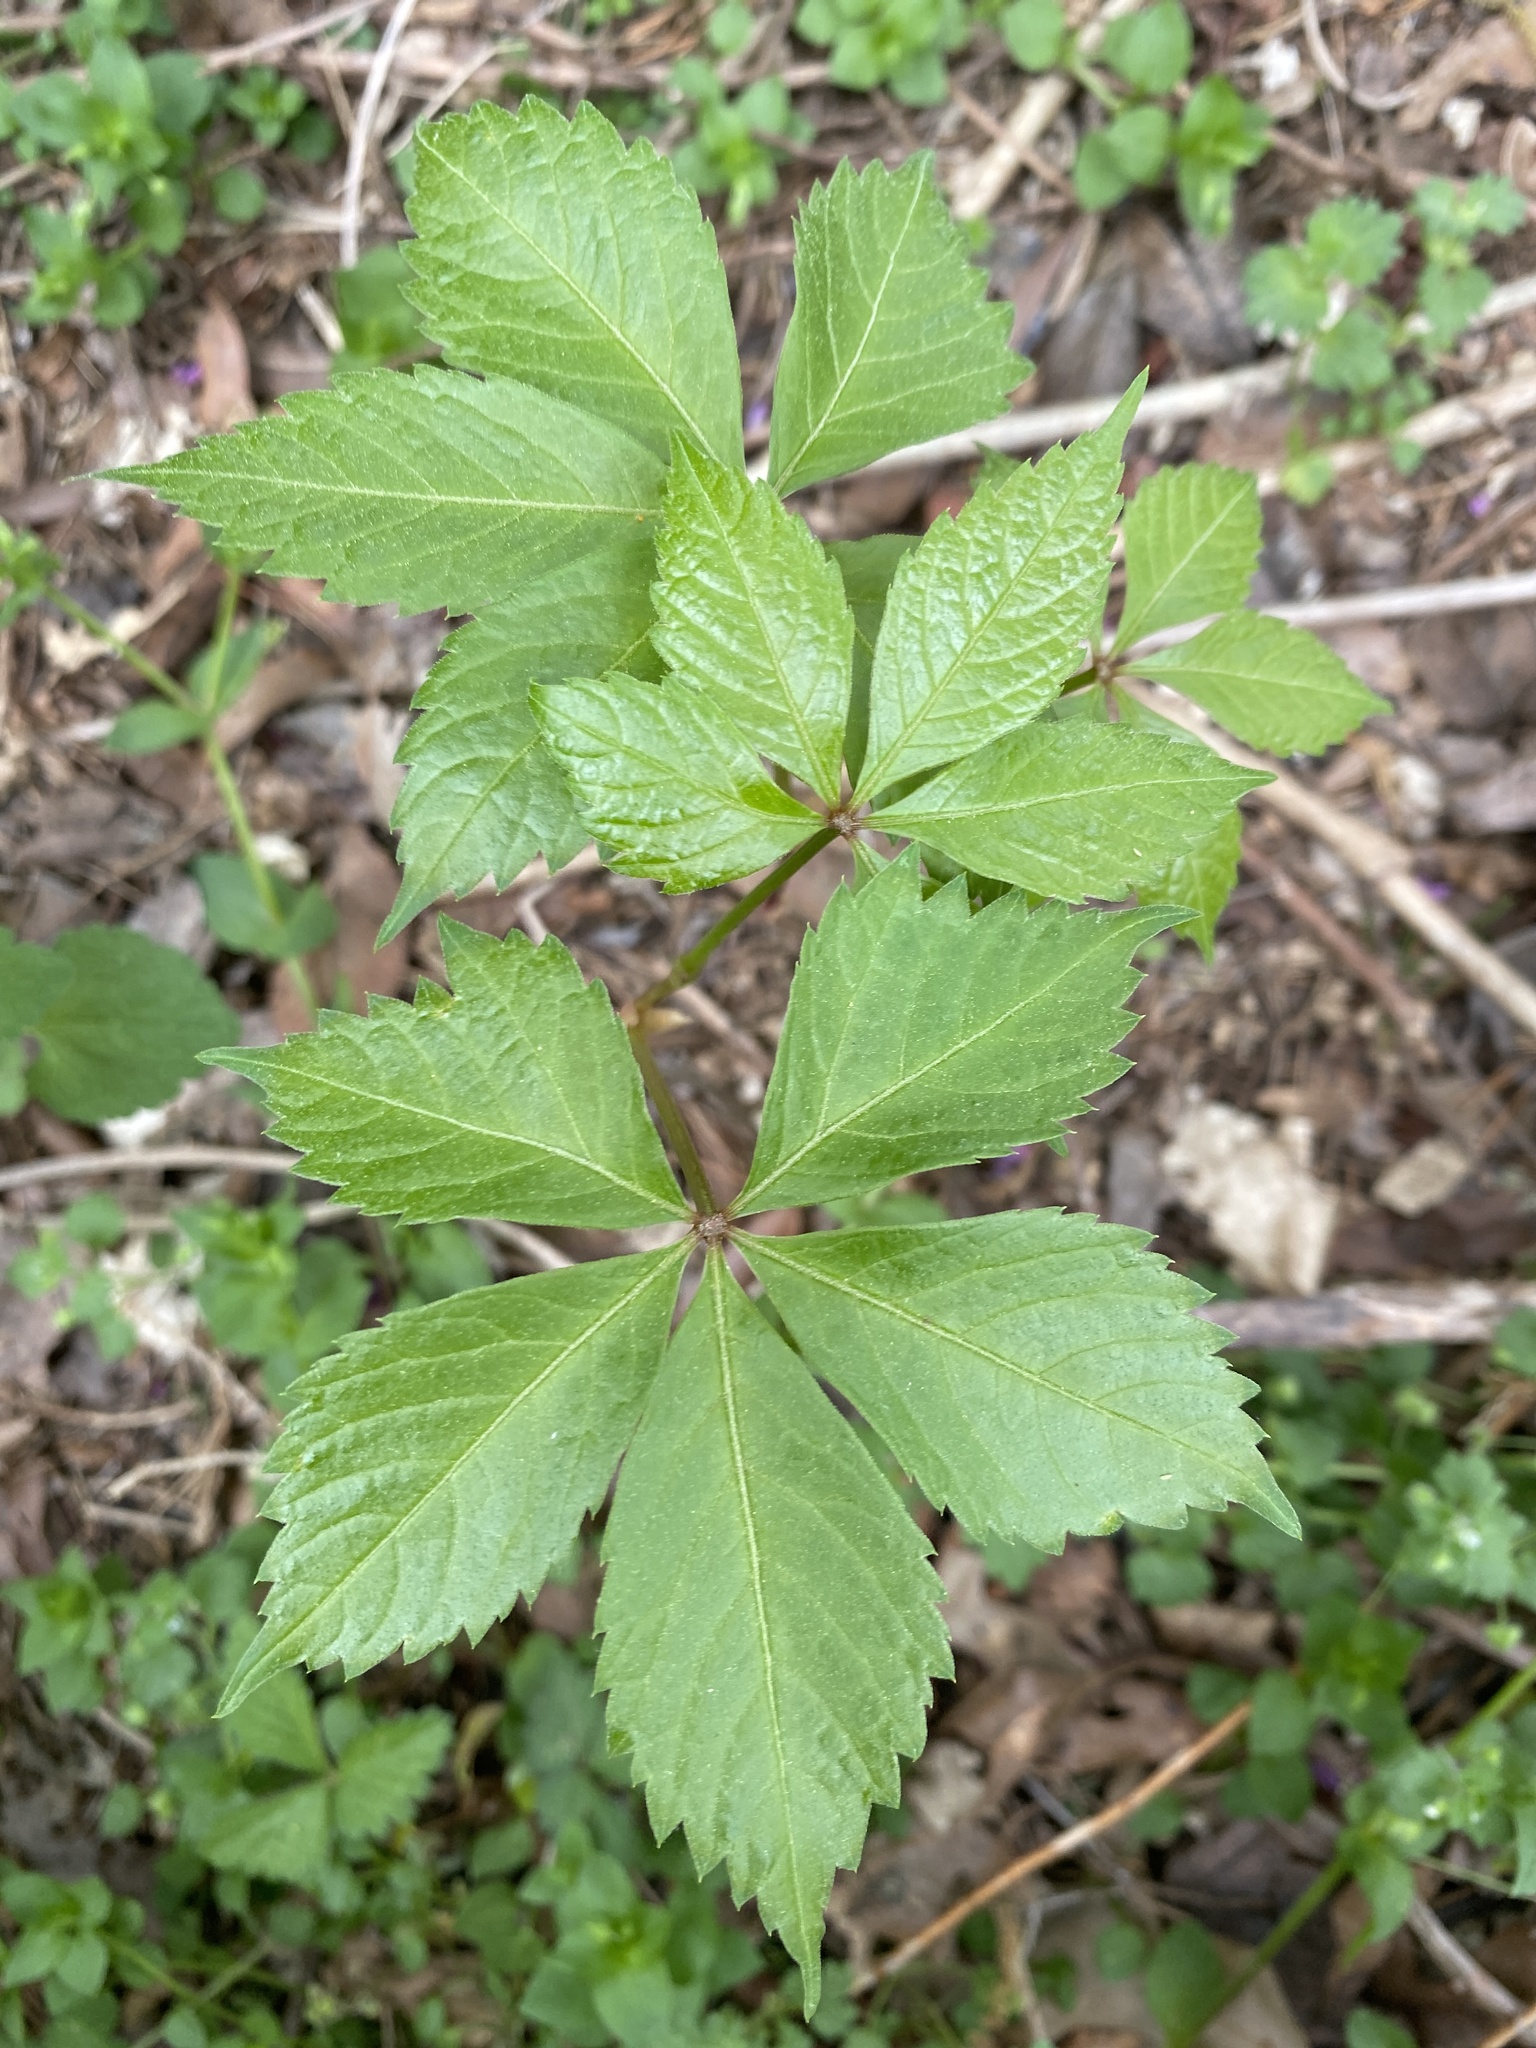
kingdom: Plantae
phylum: Tracheophyta
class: Magnoliopsida
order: Vitales
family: Vitaceae
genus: Parthenocissus
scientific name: Parthenocissus quinquefolia
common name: Virginia-creeper
